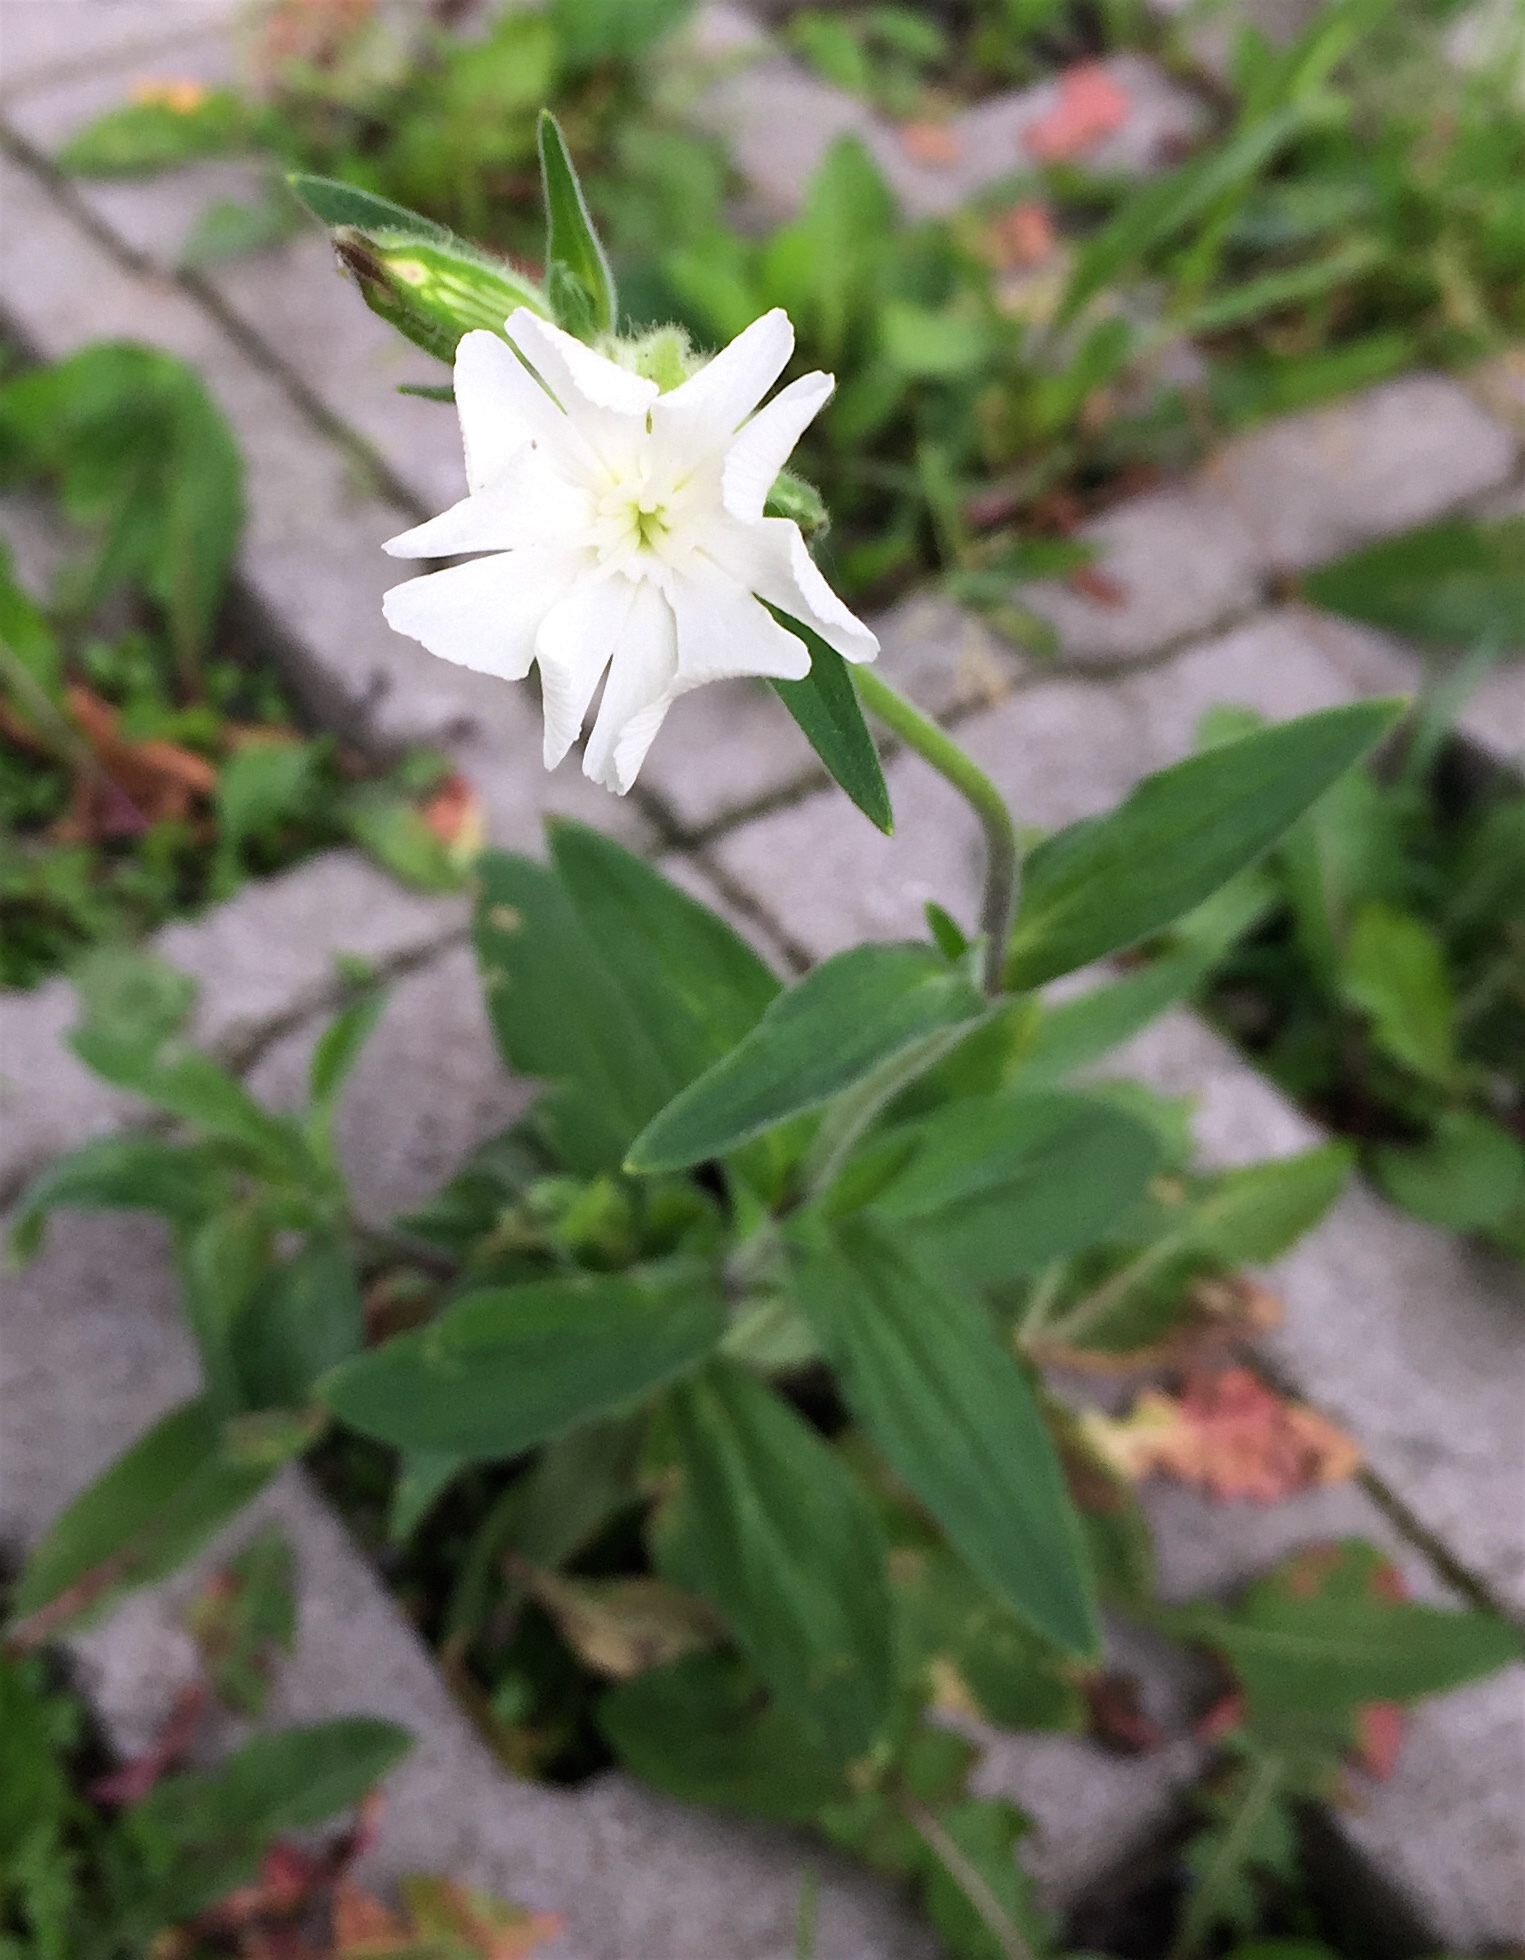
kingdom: Plantae
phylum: Tracheophyta
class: Magnoliopsida
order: Caryophyllales
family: Caryophyllaceae
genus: Silene
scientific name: Silene latifolia
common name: White campion
